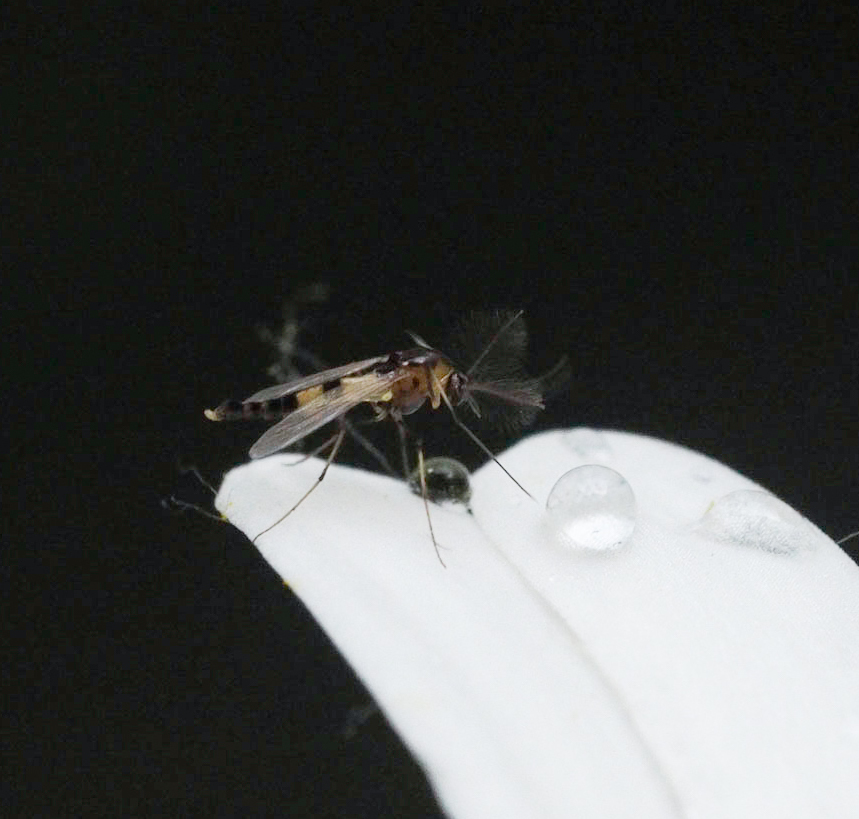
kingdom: Animalia
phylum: Arthropoda
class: Insecta
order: Diptera
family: Chironomidae
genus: Cricotopus
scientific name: Cricotopus sylvestris
